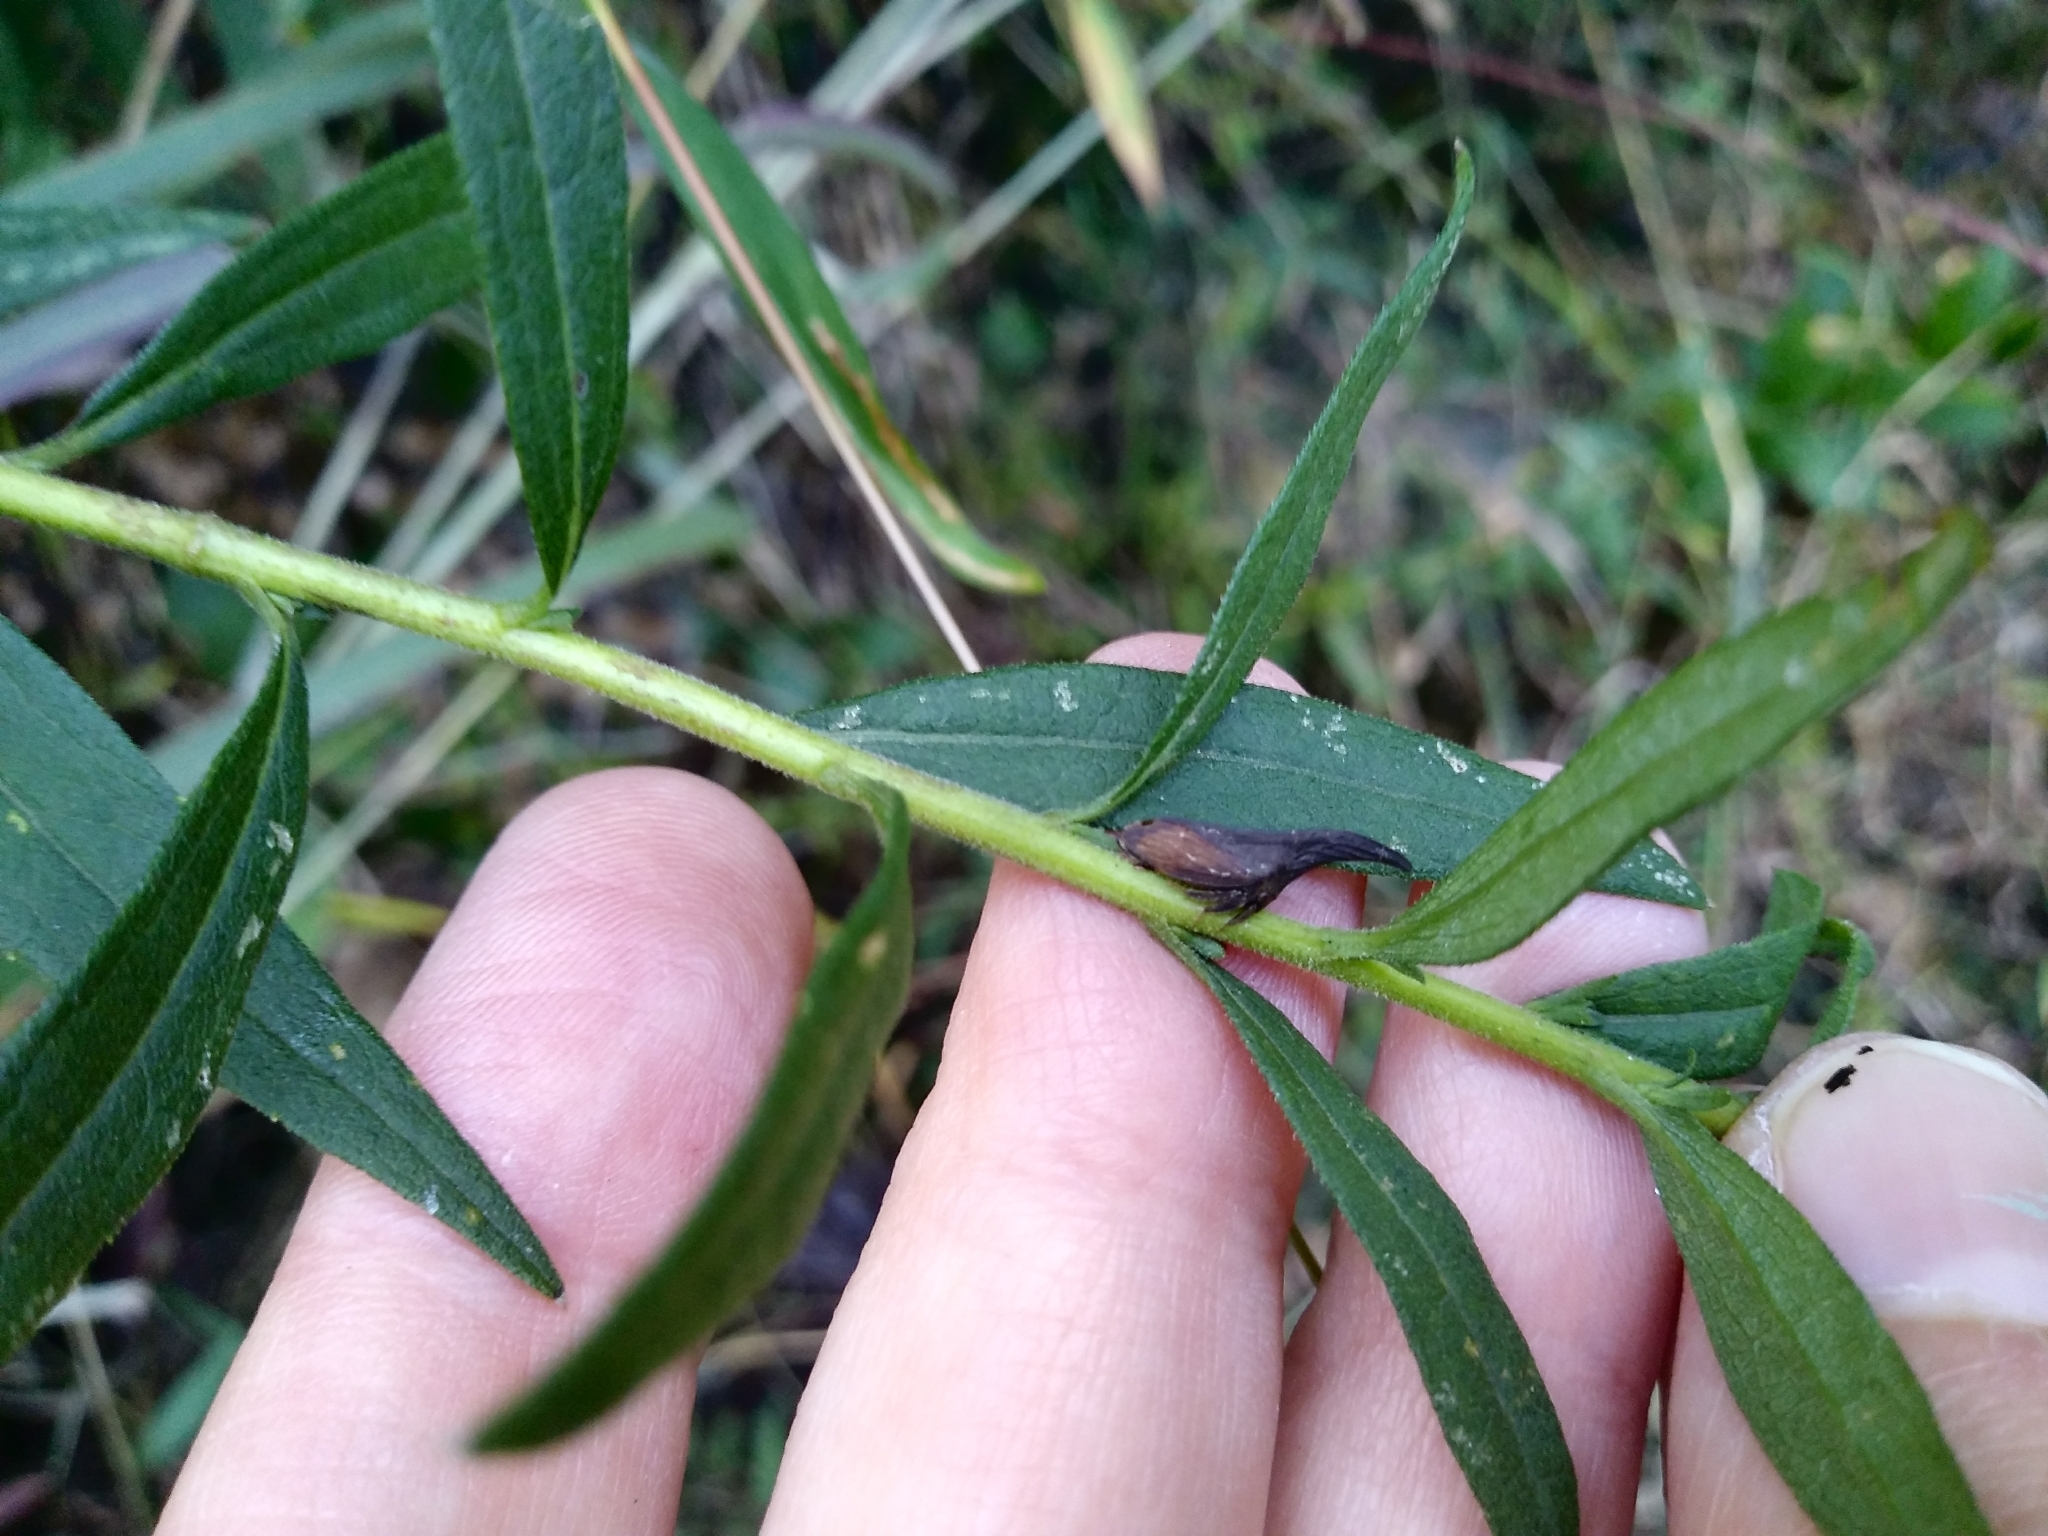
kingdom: Animalia
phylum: Arthropoda
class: Insecta
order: Hemiptera
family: Membracidae
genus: Enchenopa
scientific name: Enchenopa latipes
